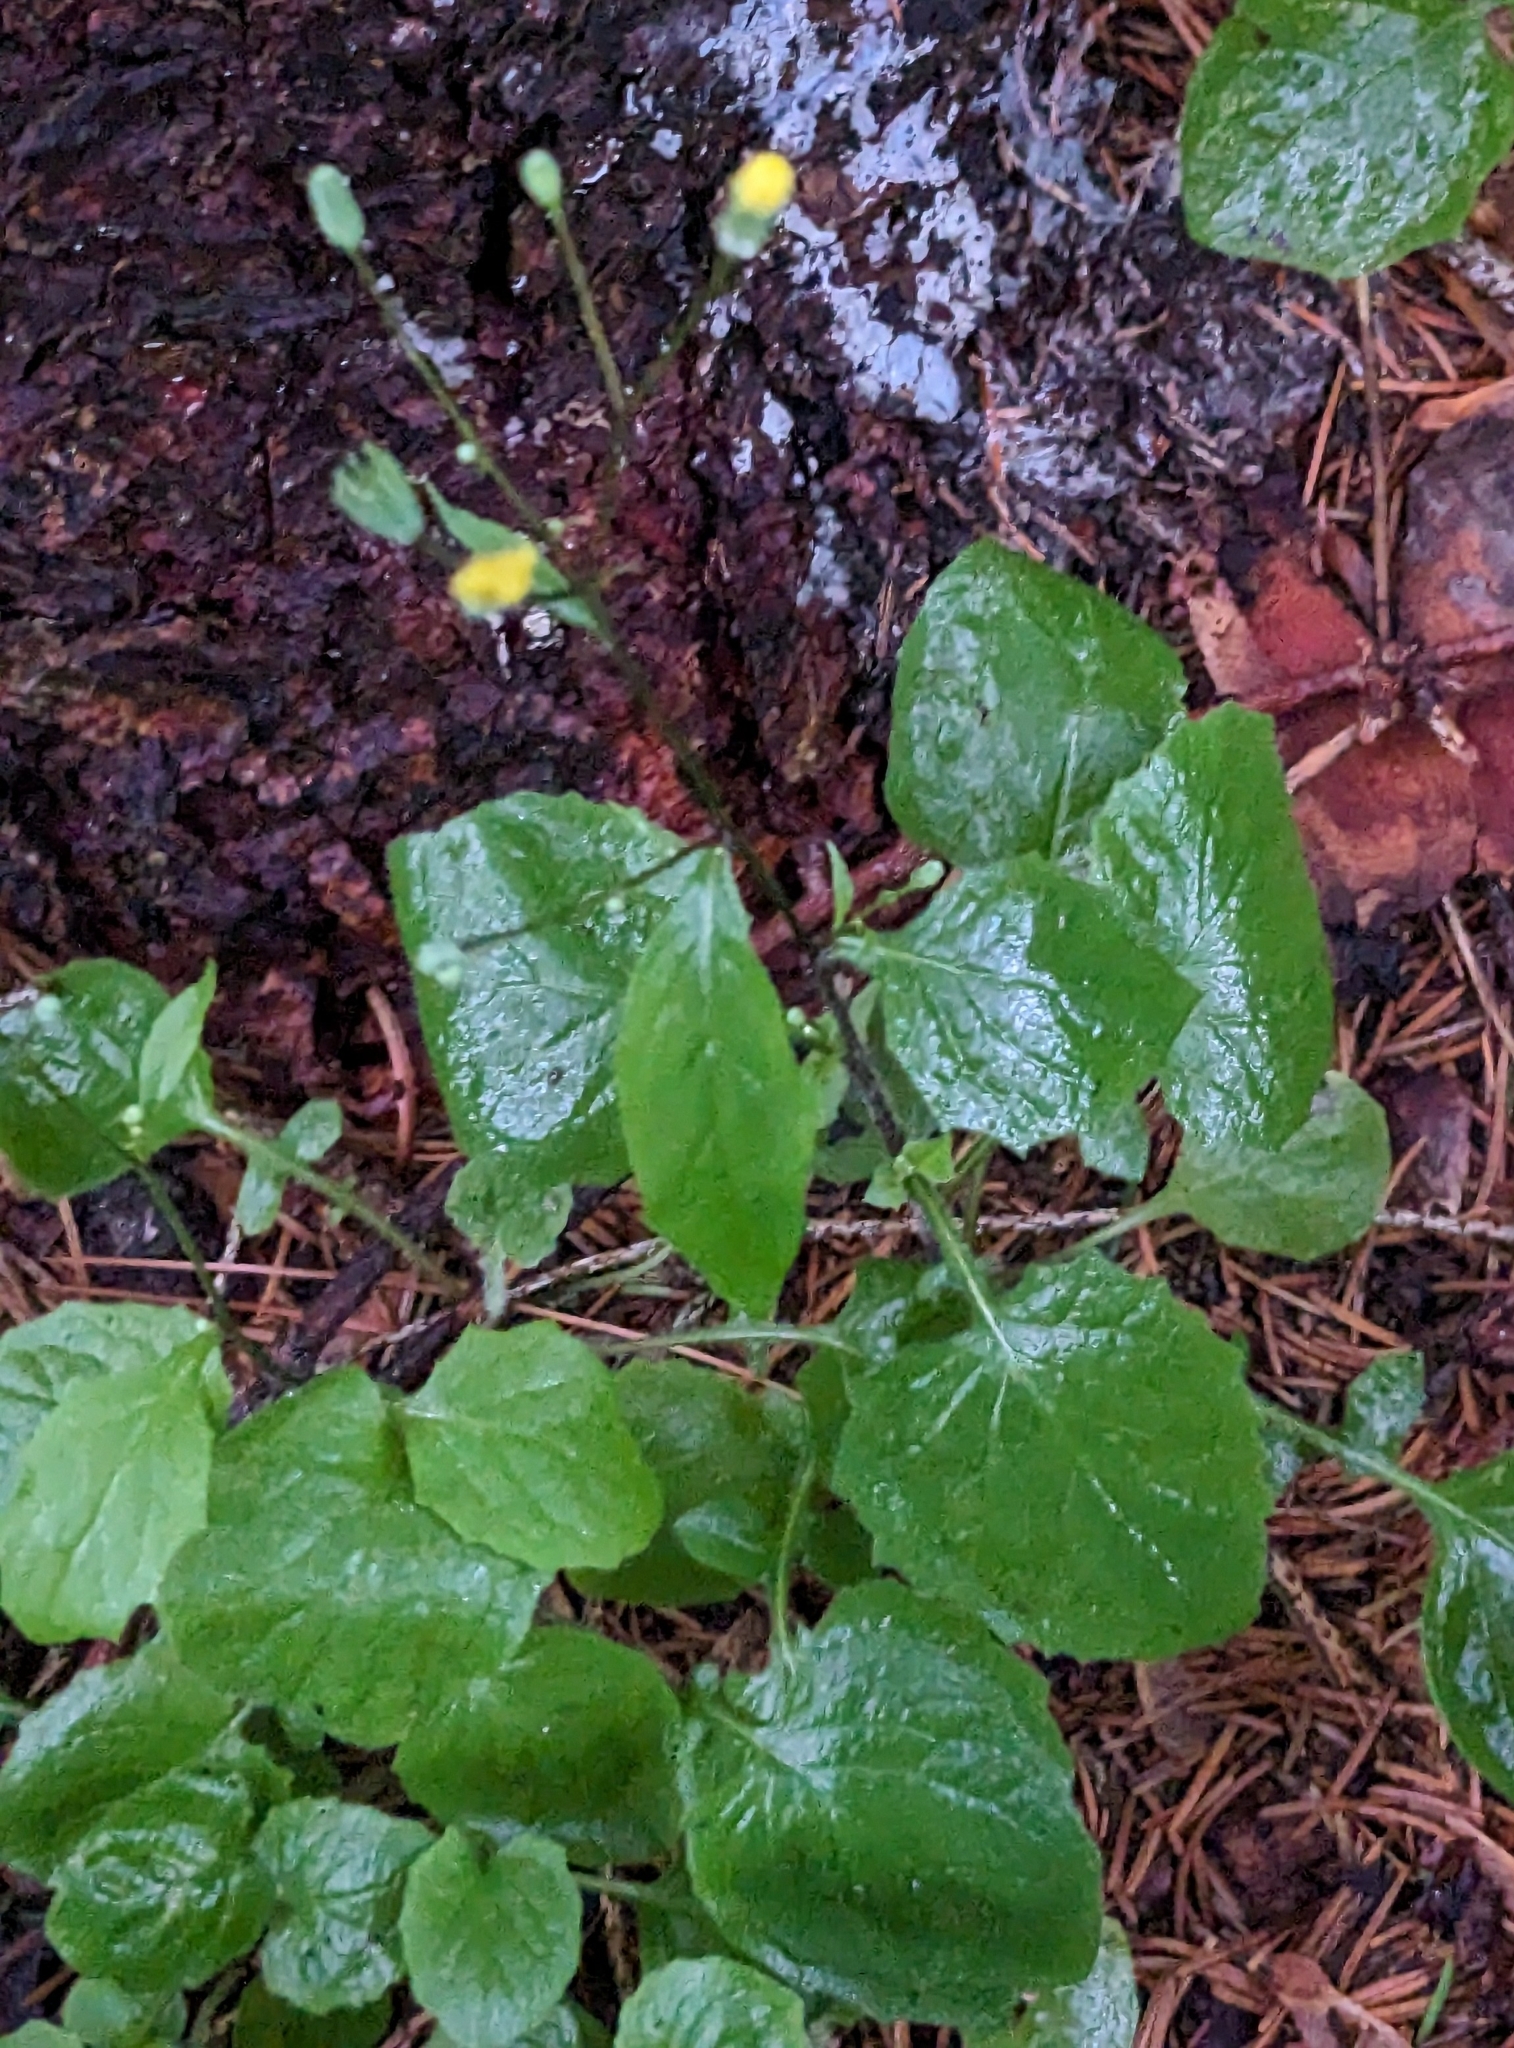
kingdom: Plantae
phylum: Tracheophyta
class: Magnoliopsida
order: Asterales
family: Asteraceae
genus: Lapsana
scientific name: Lapsana communis
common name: Nipplewort
